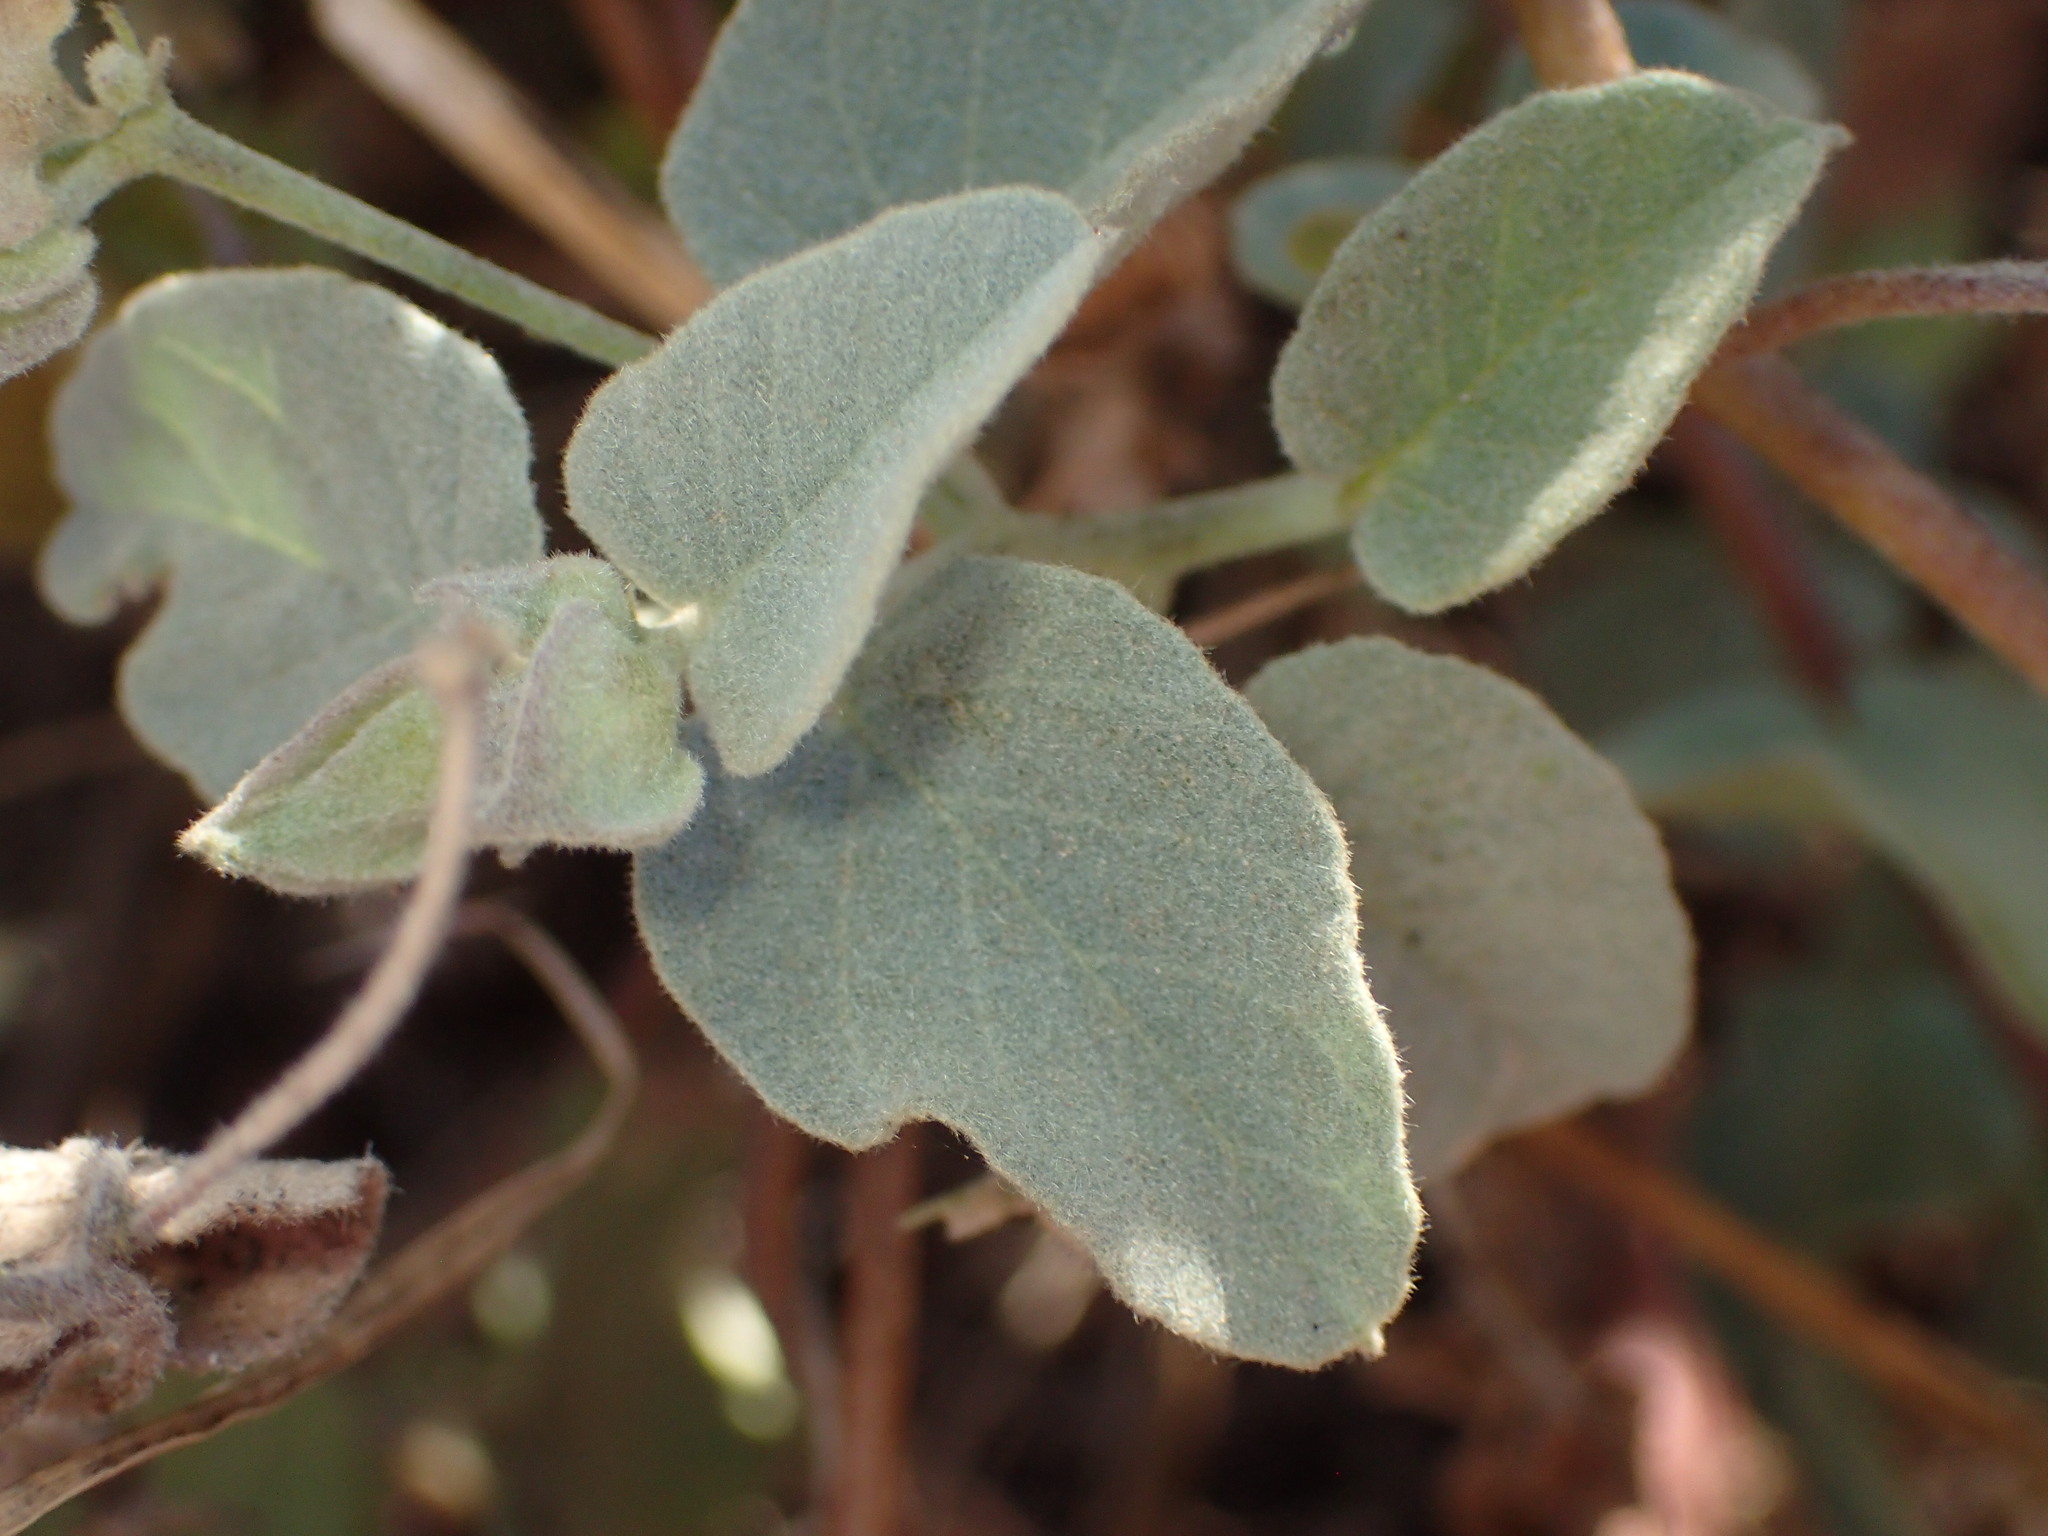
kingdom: Plantae
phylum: Tracheophyta
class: Magnoliopsida
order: Solanales
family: Convolvulaceae
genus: Jacquemontia
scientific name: Jacquemontia abutiloides
